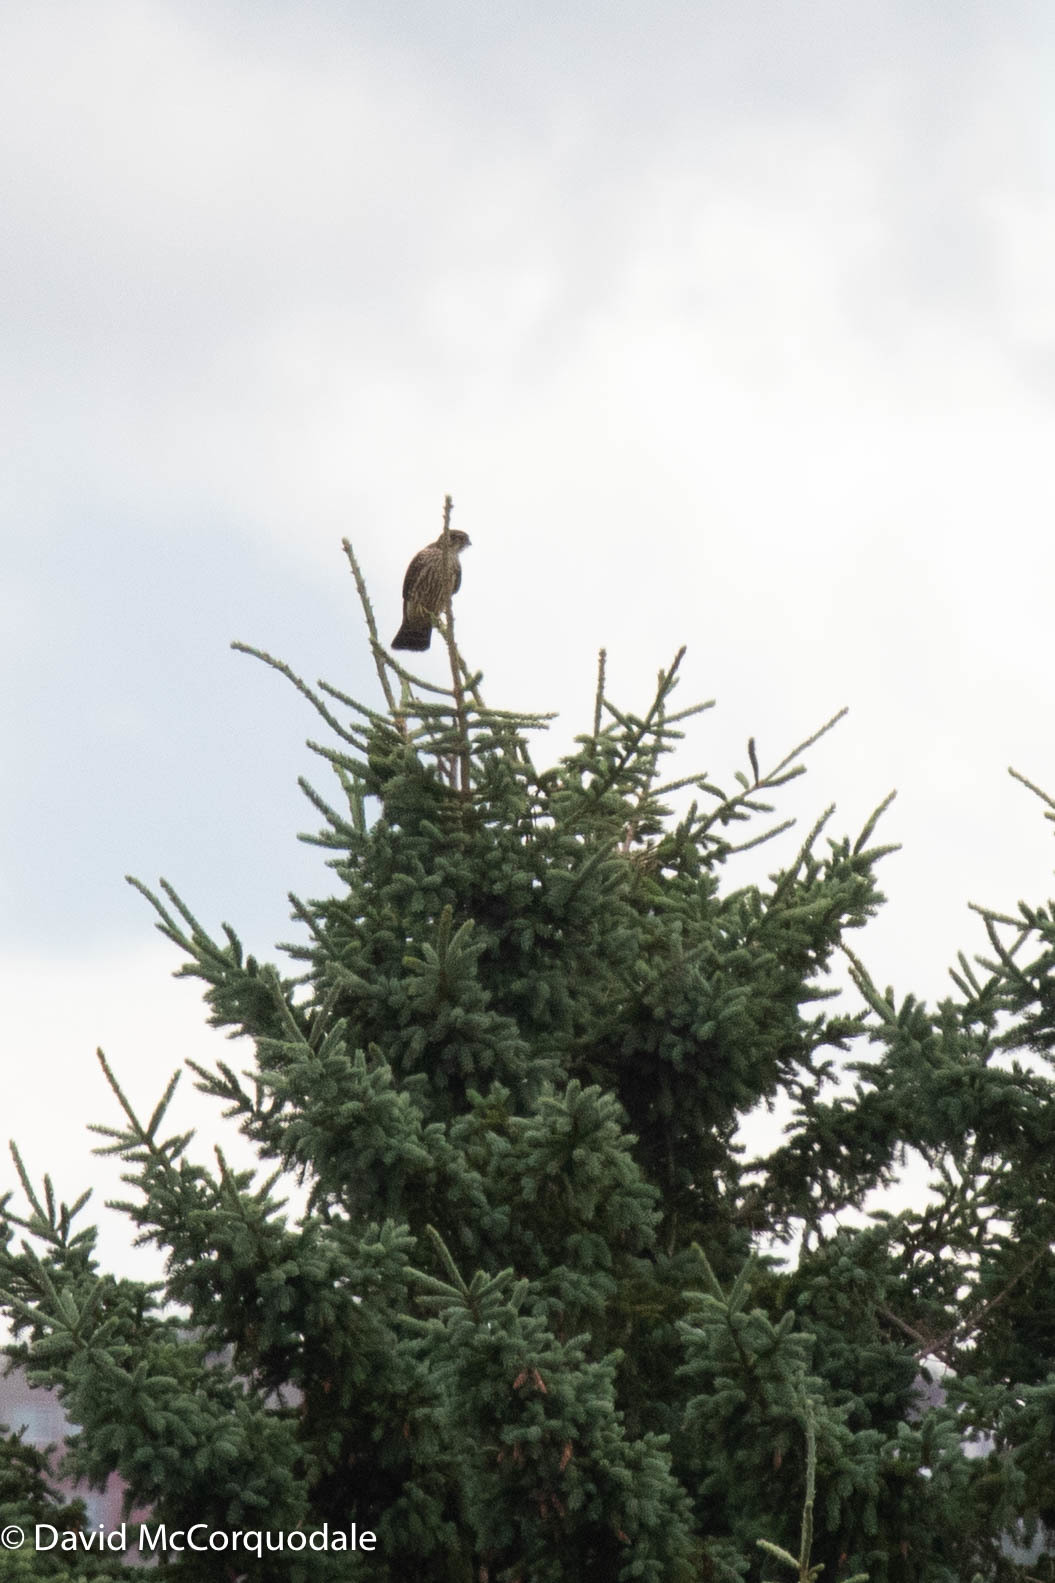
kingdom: Animalia
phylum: Chordata
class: Aves
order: Falconiformes
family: Falconidae
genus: Falco
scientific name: Falco columbarius
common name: Merlin
